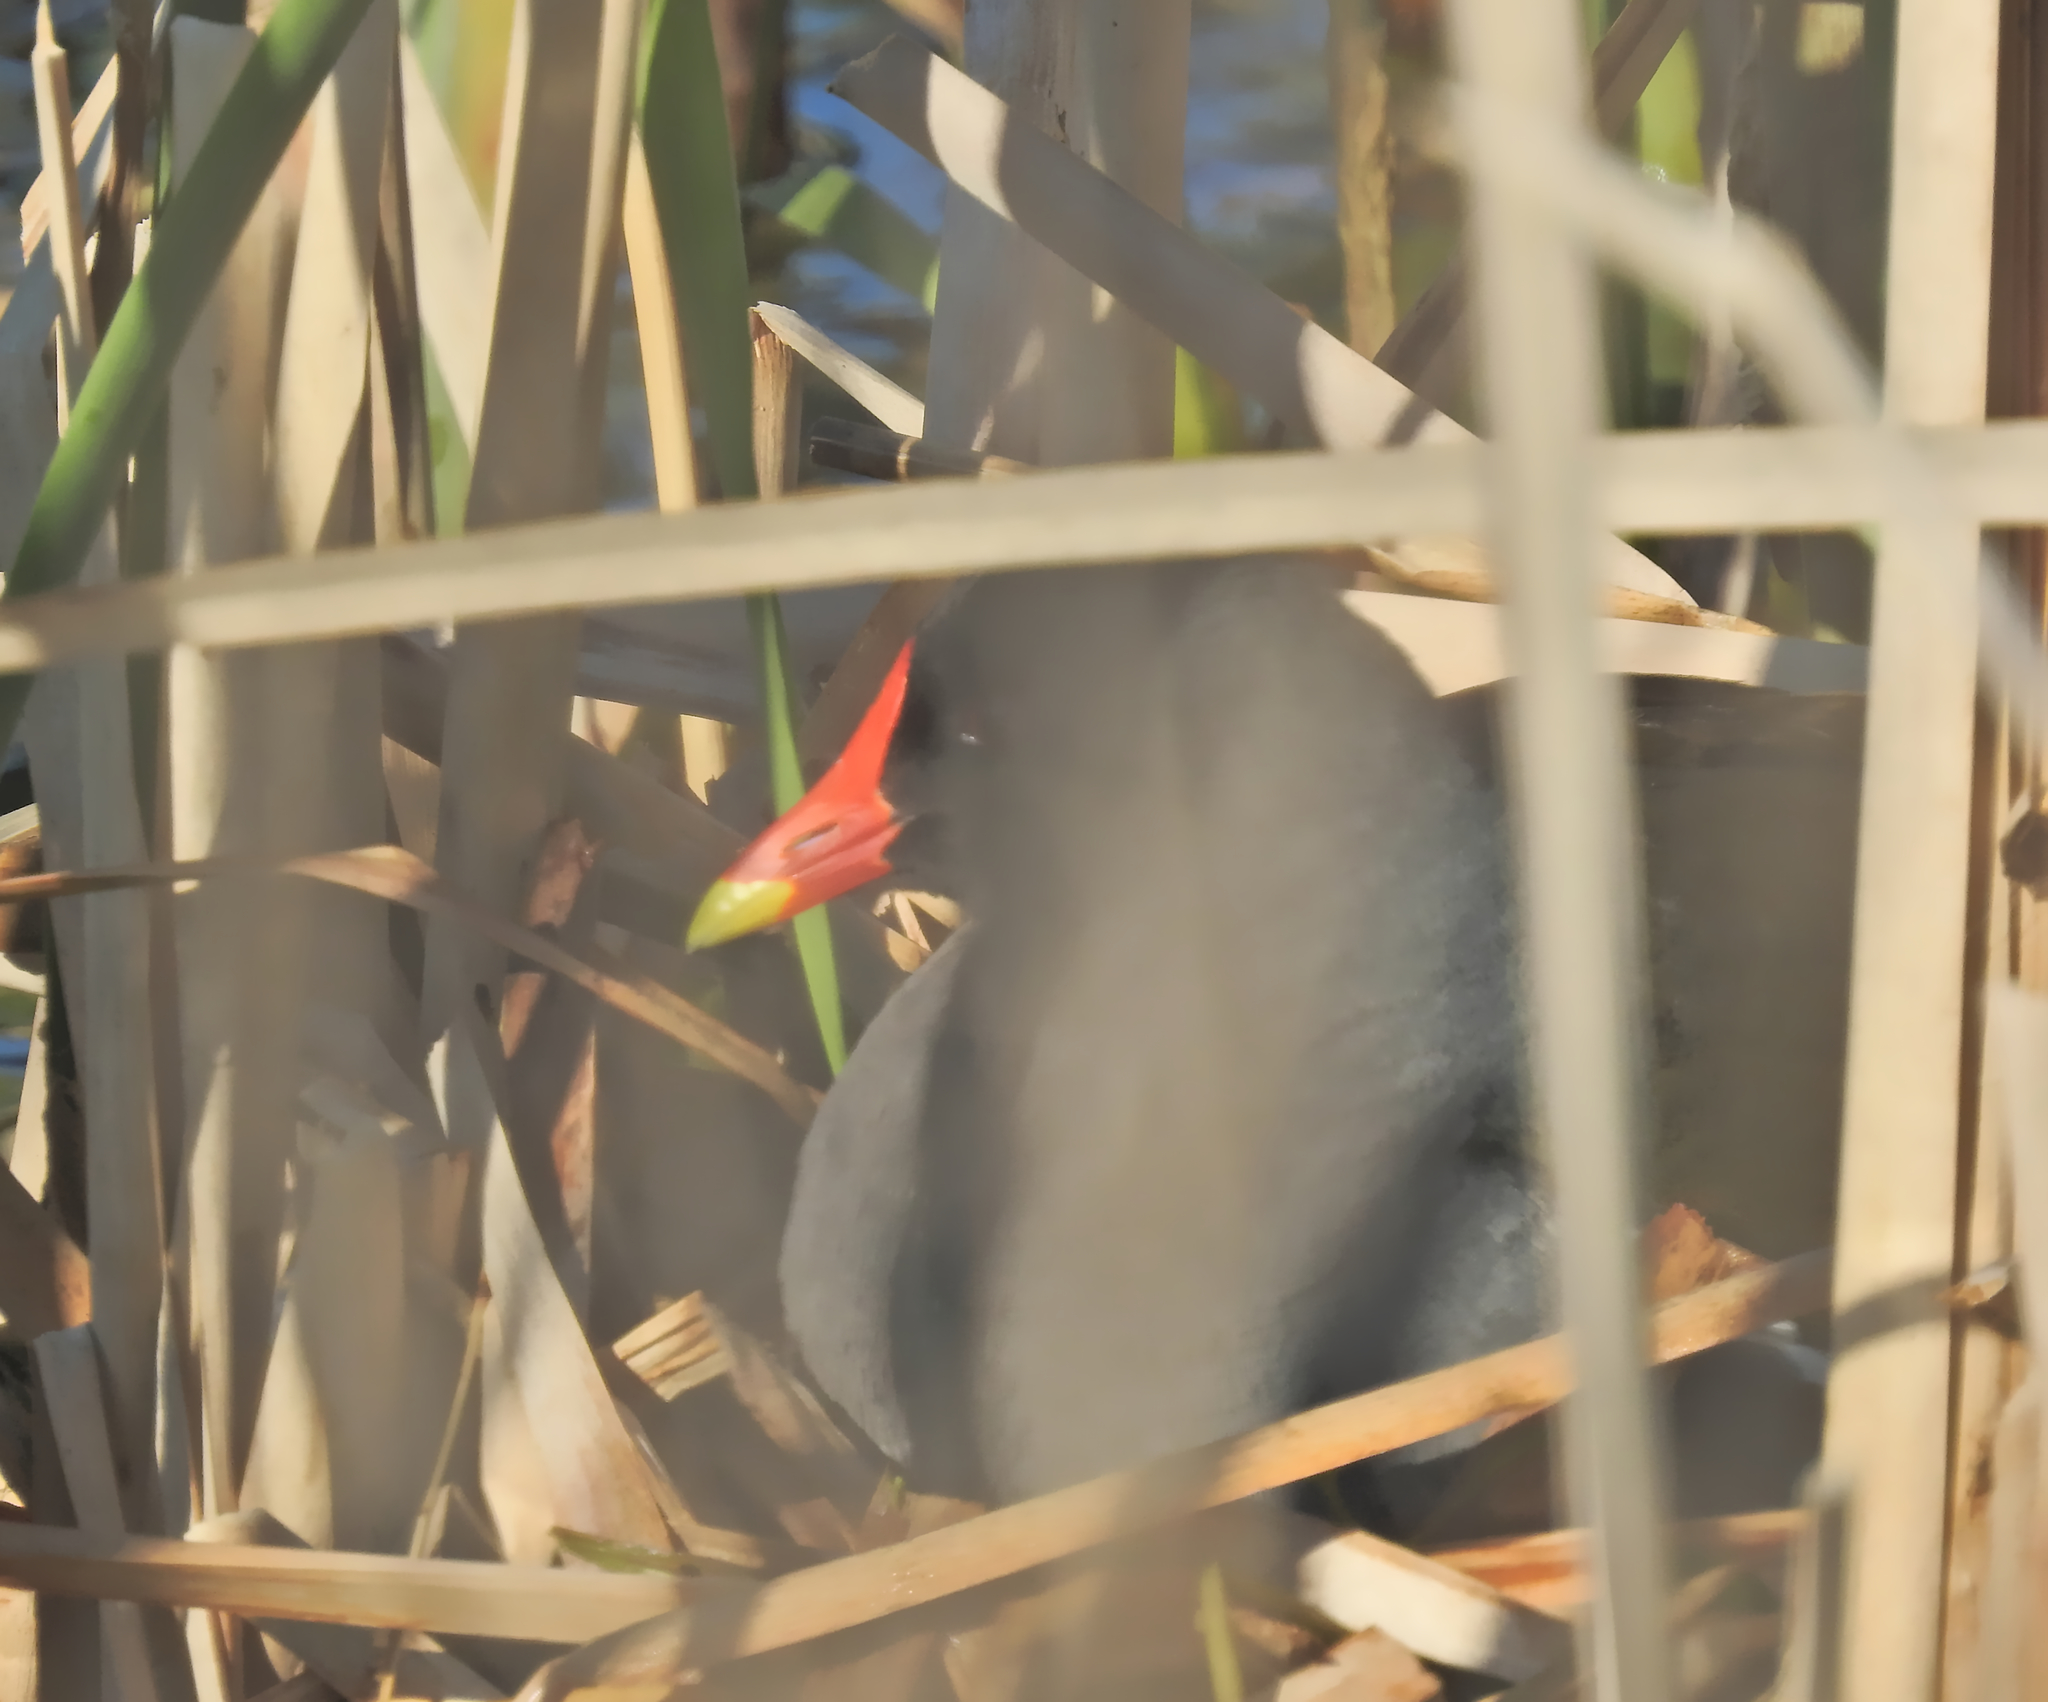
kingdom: Animalia
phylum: Chordata
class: Aves
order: Gruiformes
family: Rallidae
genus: Gallinula
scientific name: Gallinula chloropus
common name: Common moorhen
